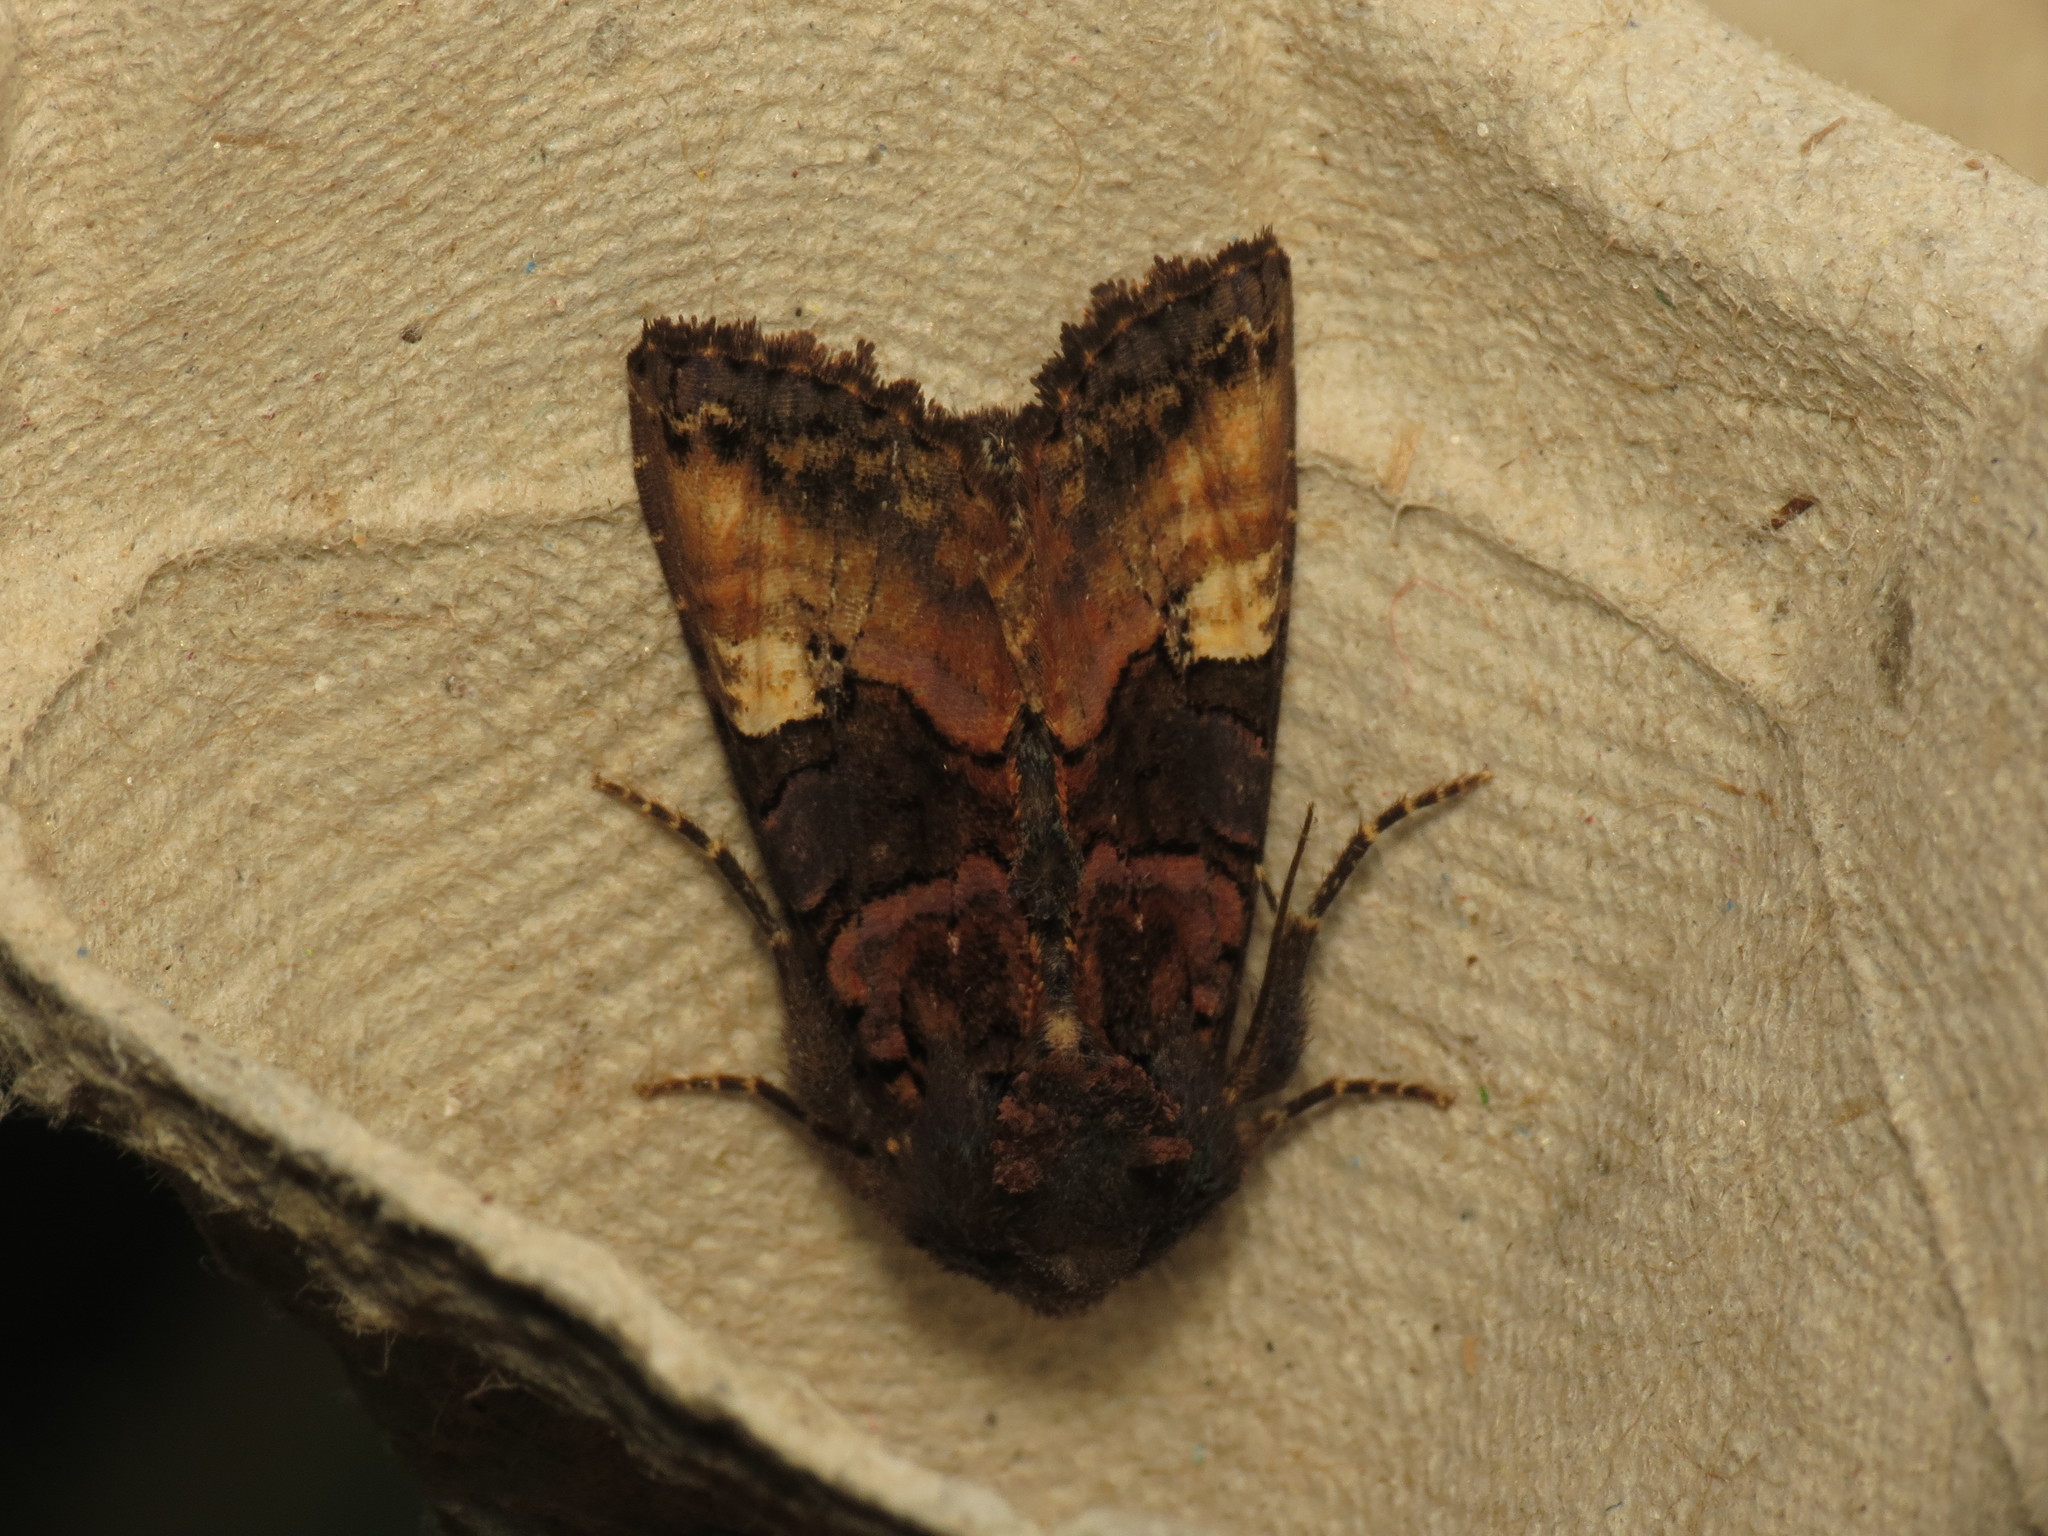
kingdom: Animalia
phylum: Arthropoda
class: Insecta
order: Lepidoptera
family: Noctuidae
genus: Euplexia
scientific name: Euplexia lucipara
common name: Small angle shades
